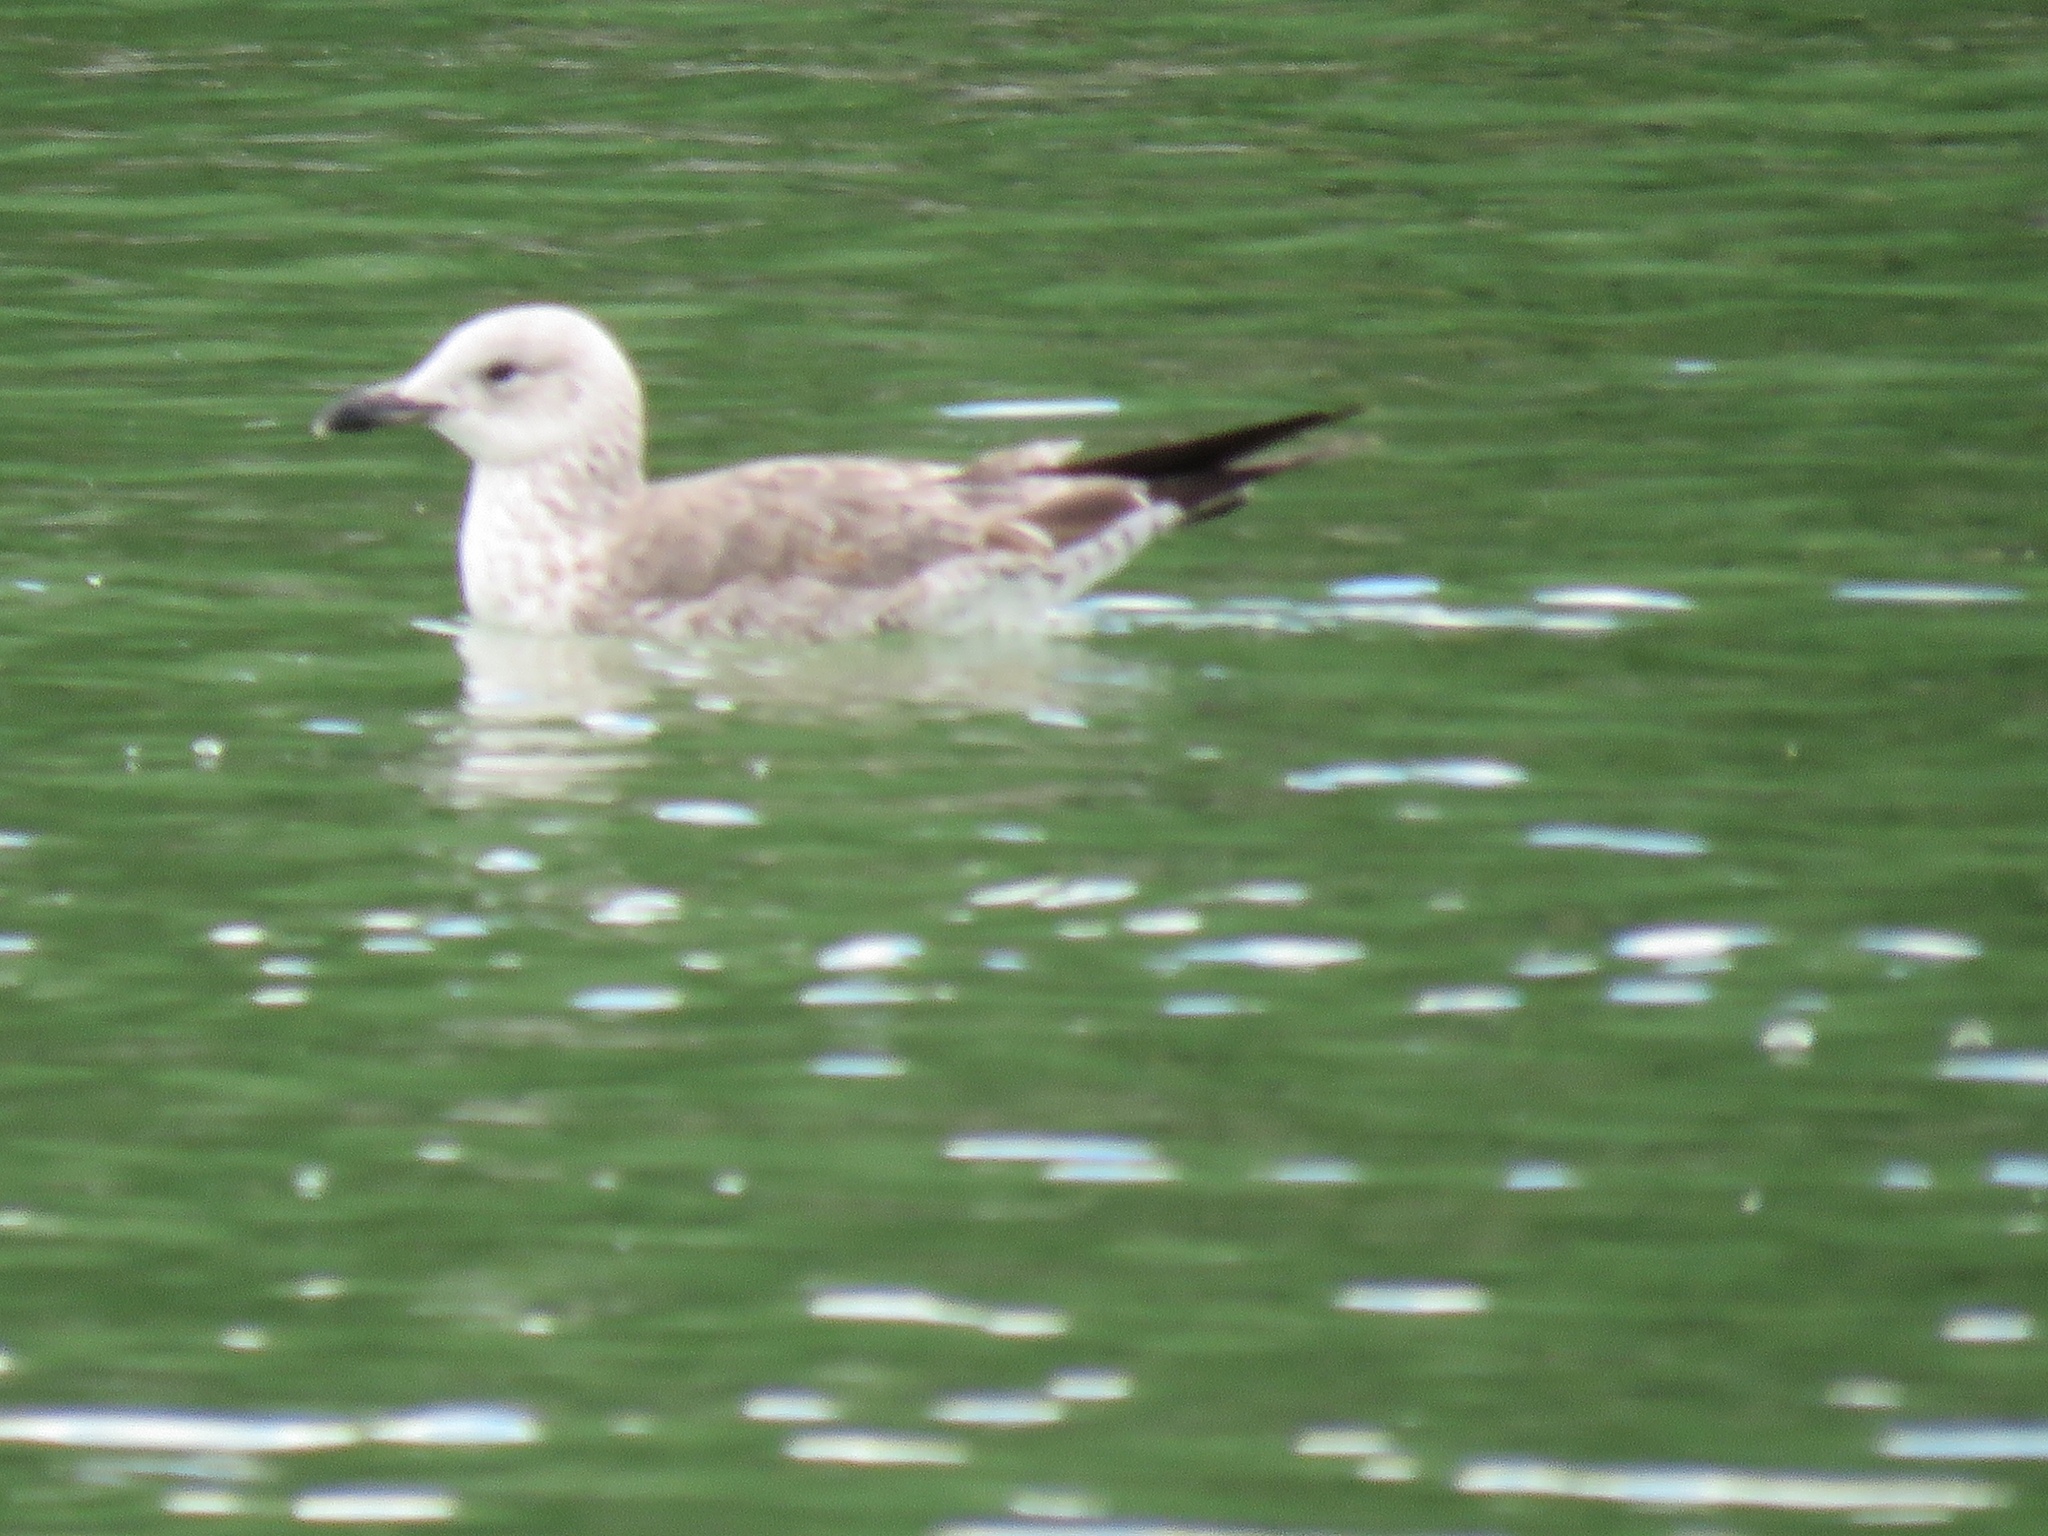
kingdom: Animalia
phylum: Chordata
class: Aves
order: Charadriiformes
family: Laridae
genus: Larus
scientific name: Larus fuscus
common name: Lesser black-backed gull
